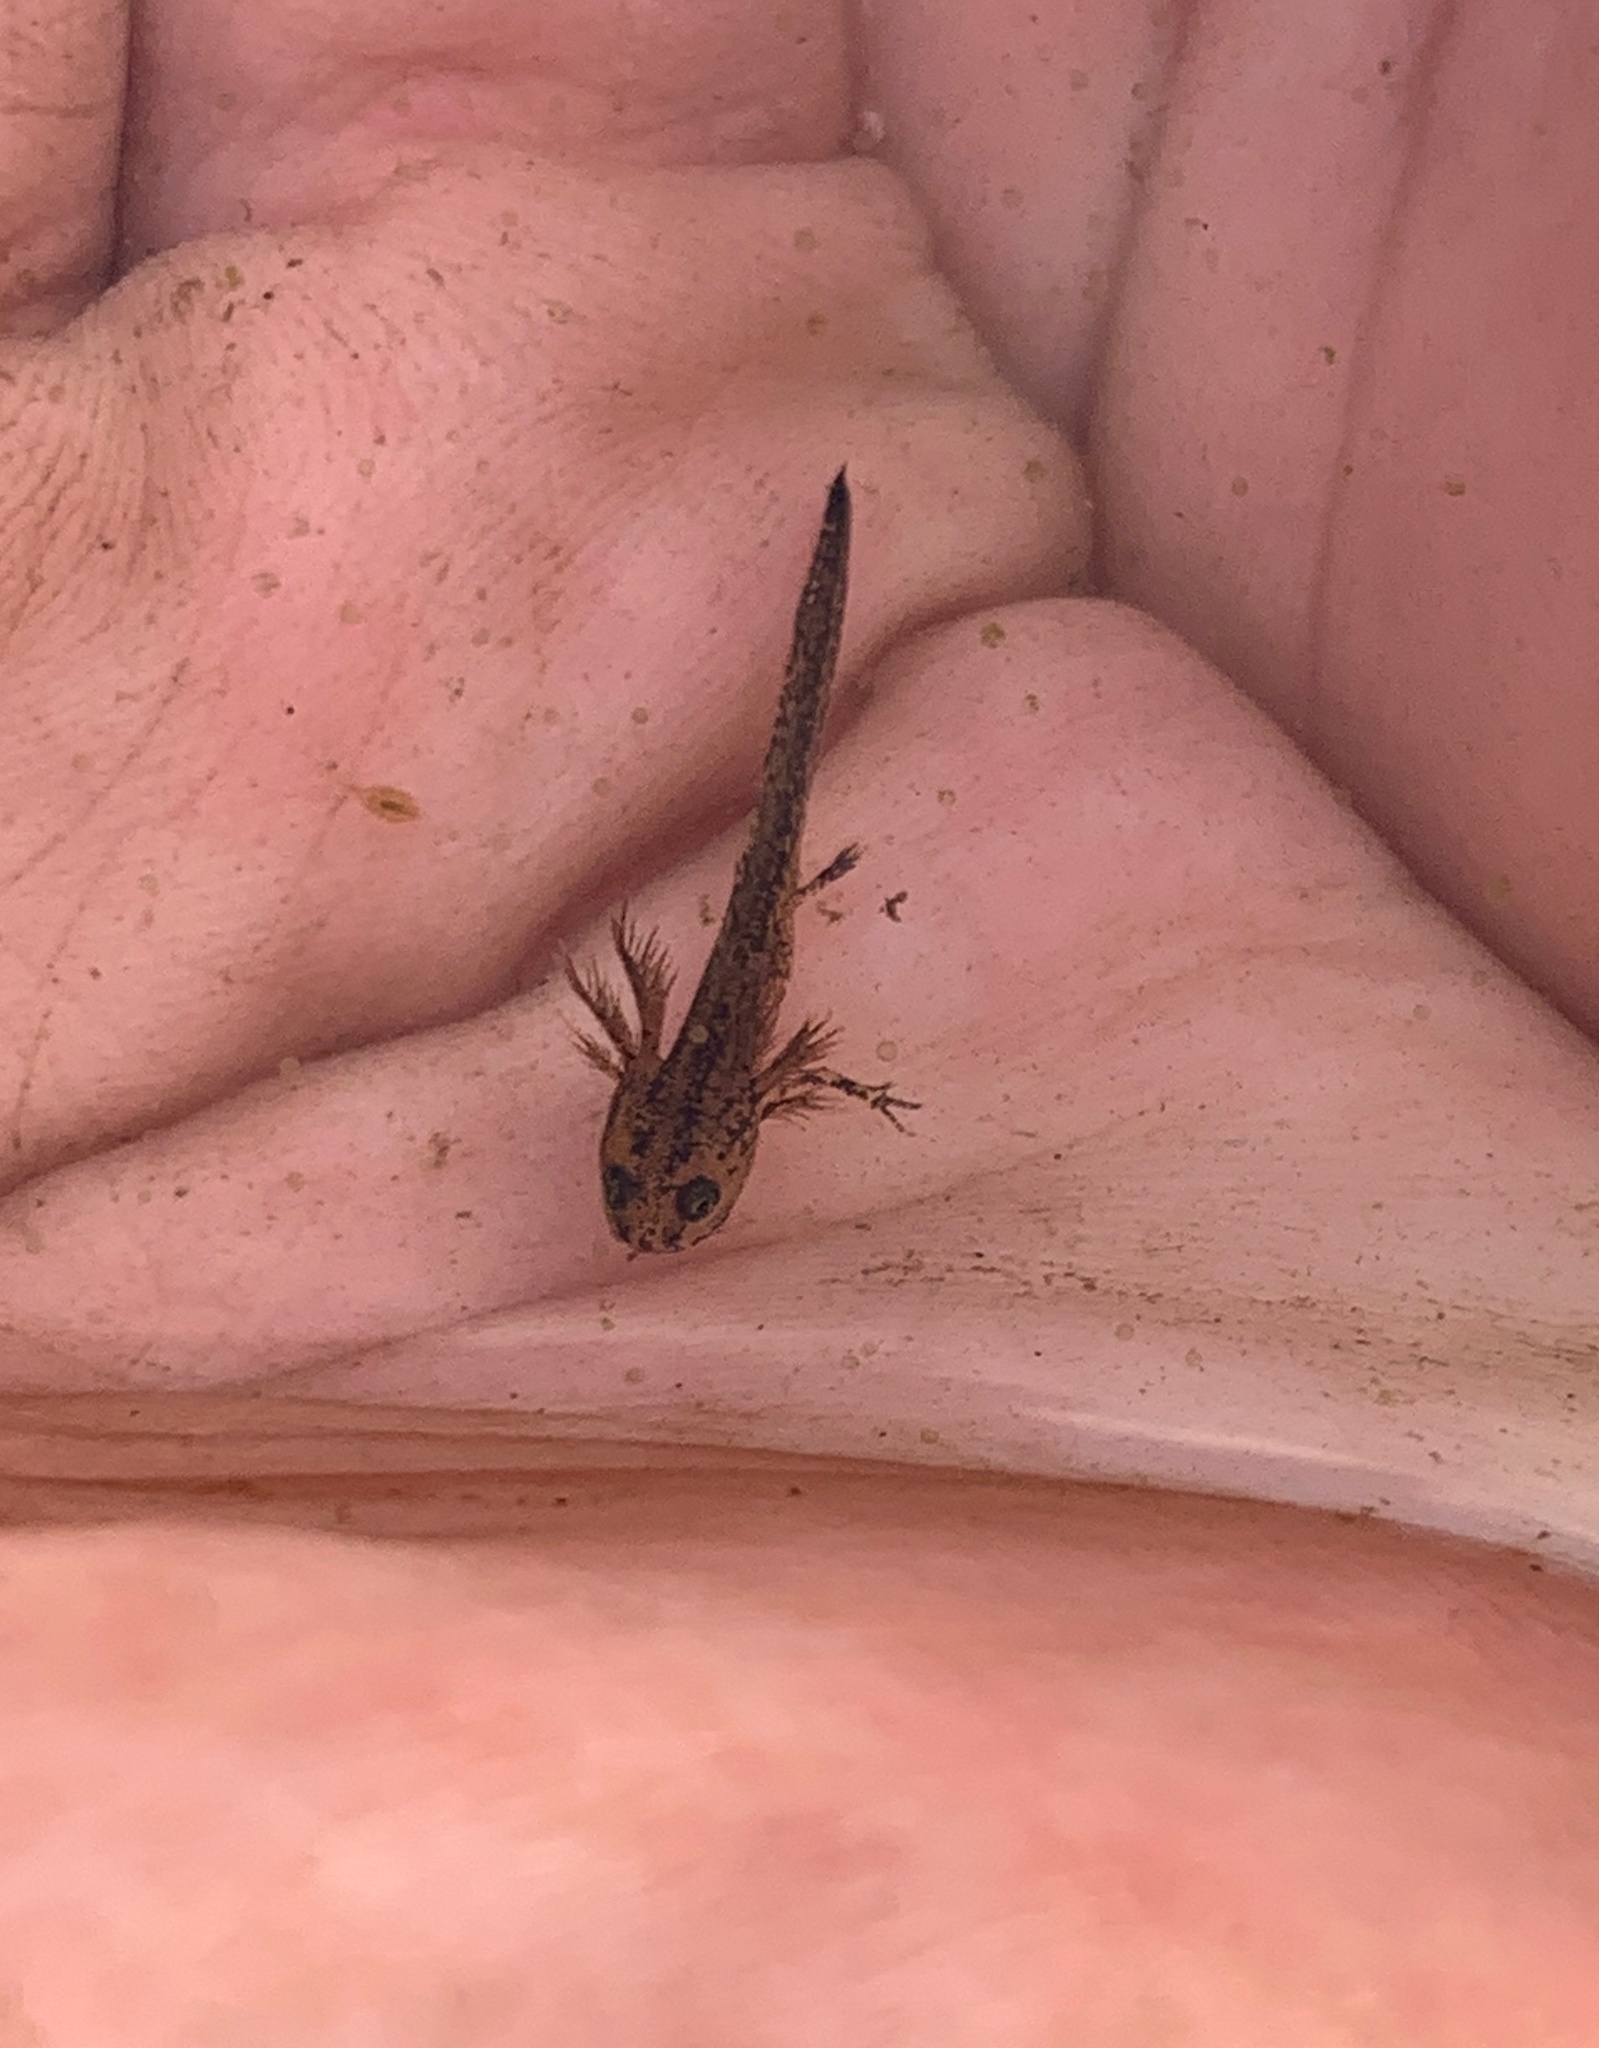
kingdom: Animalia
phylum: Chordata
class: Amphibia
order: Caudata
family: Salamandridae
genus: Triturus
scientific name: Triturus cristatus
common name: Crested newt
